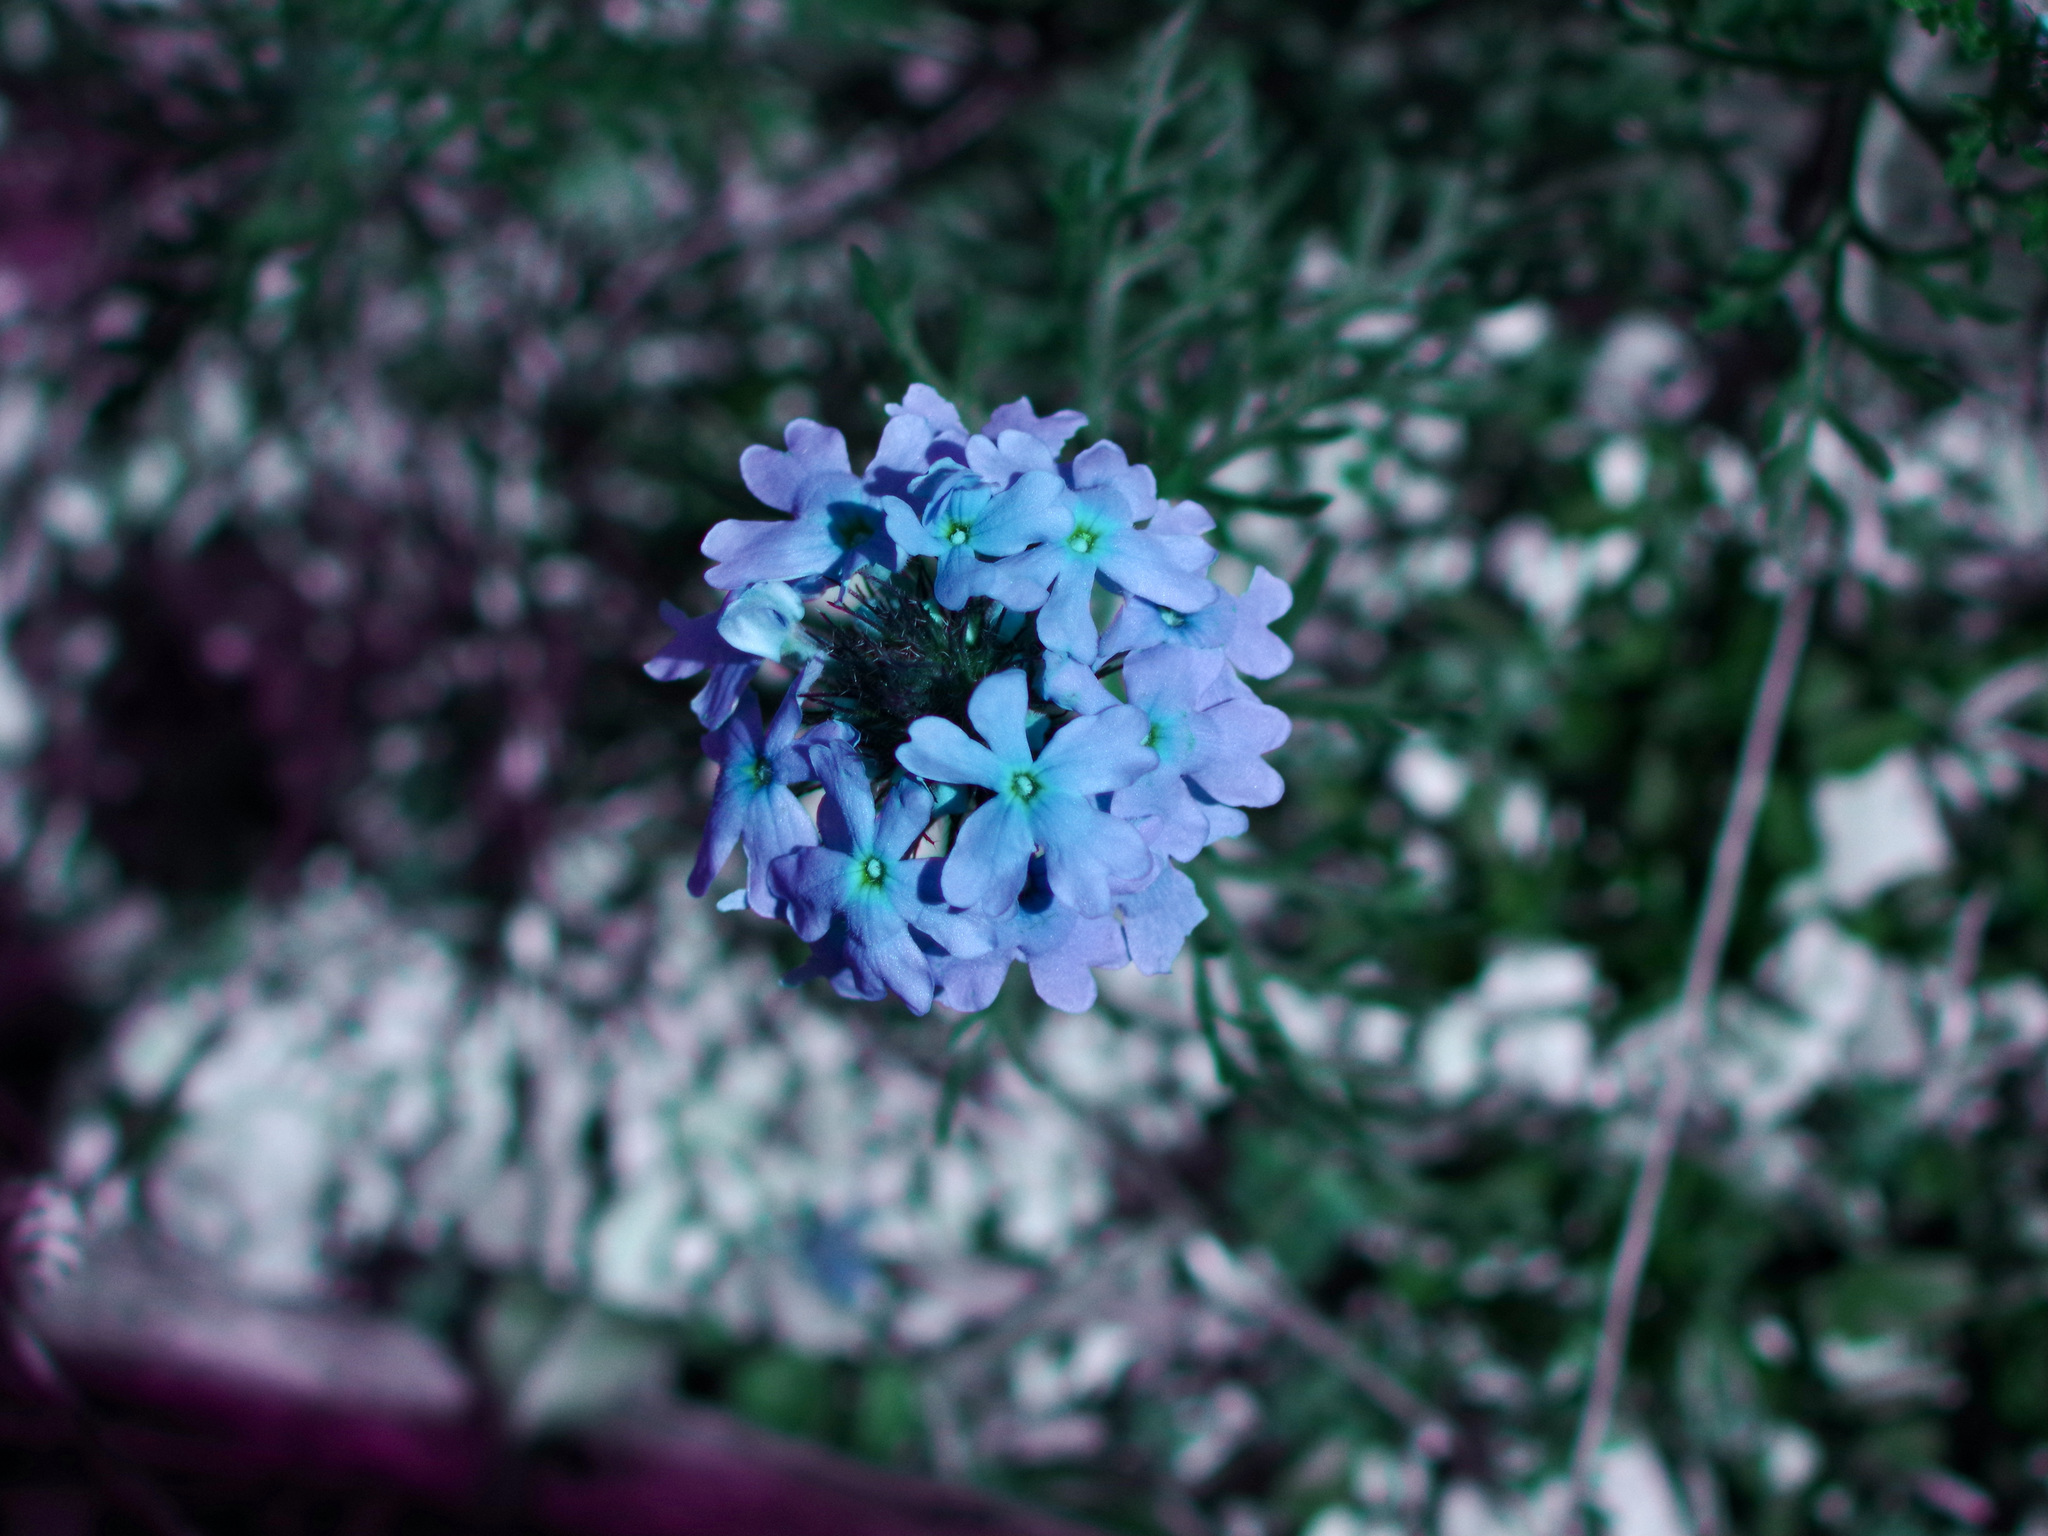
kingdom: Plantae
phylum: Tracheophyta
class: Magnoliopsida
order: Lamiales
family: Verbenaceae
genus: Verbena
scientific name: Verbena bipinnatifida
